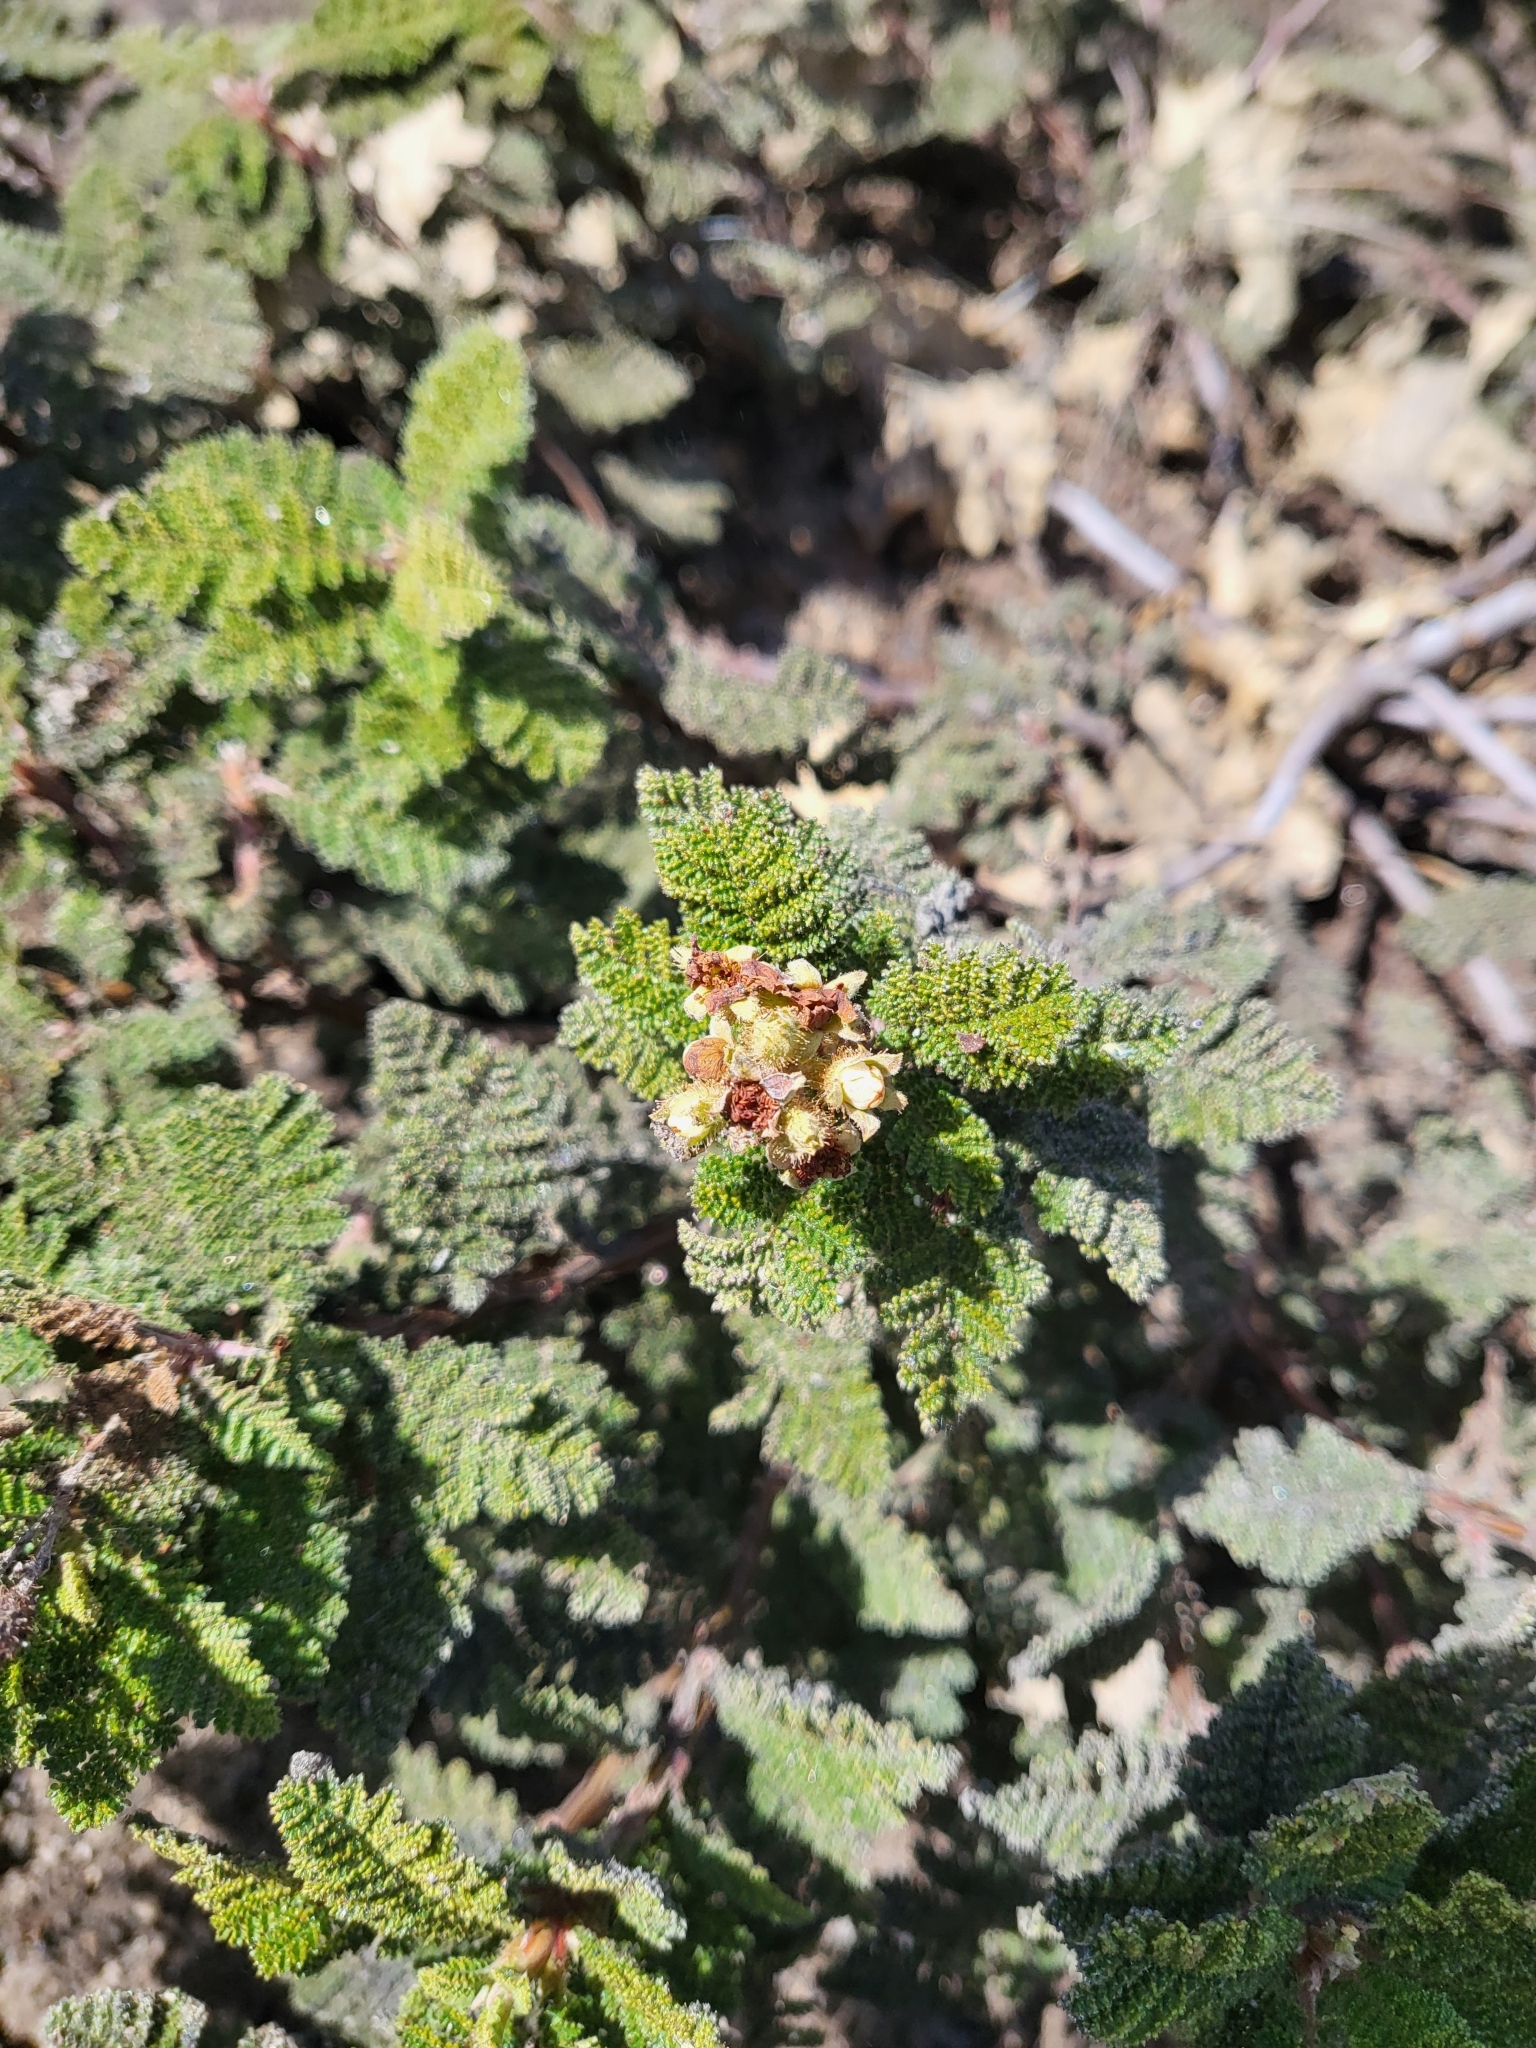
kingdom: Plantae
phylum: Tracheophyta
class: Magnoliopsida
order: Rosales
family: Rosaceae
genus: Chamaebatia
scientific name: Chamaebatia foliolosa
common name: Mountain misery
